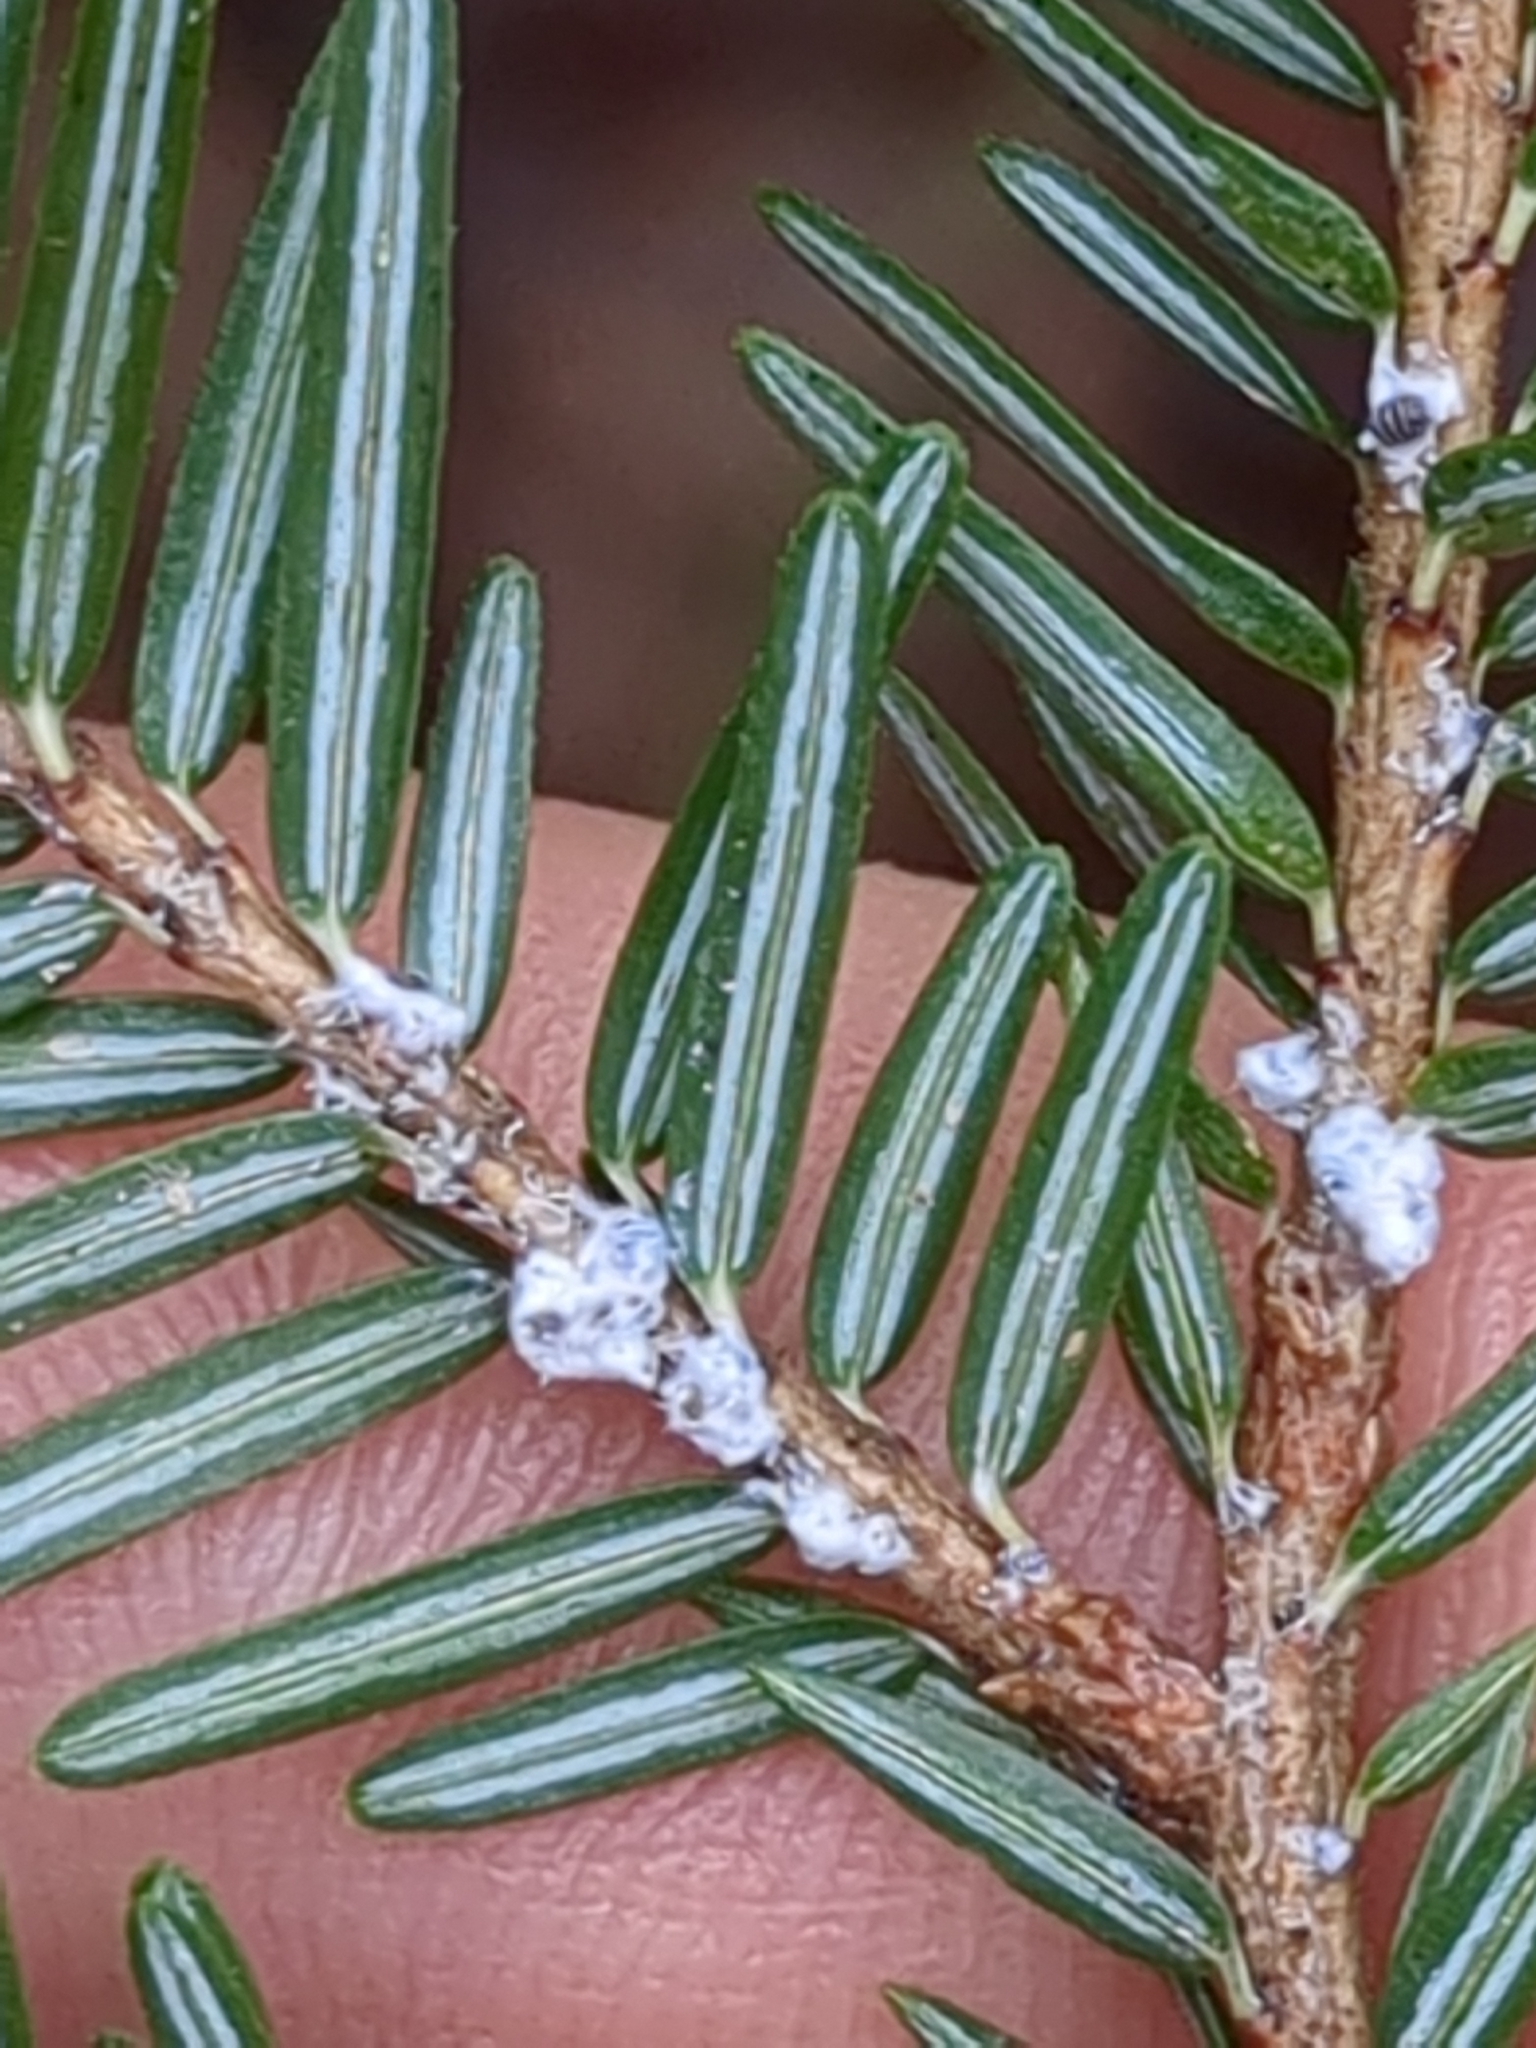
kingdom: Animalia
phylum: Arthropoda
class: Insecta
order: Hemiptera
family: Adelgidae
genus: Adelges
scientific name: Adelges tsugae
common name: Hemlock woolly adelgid
